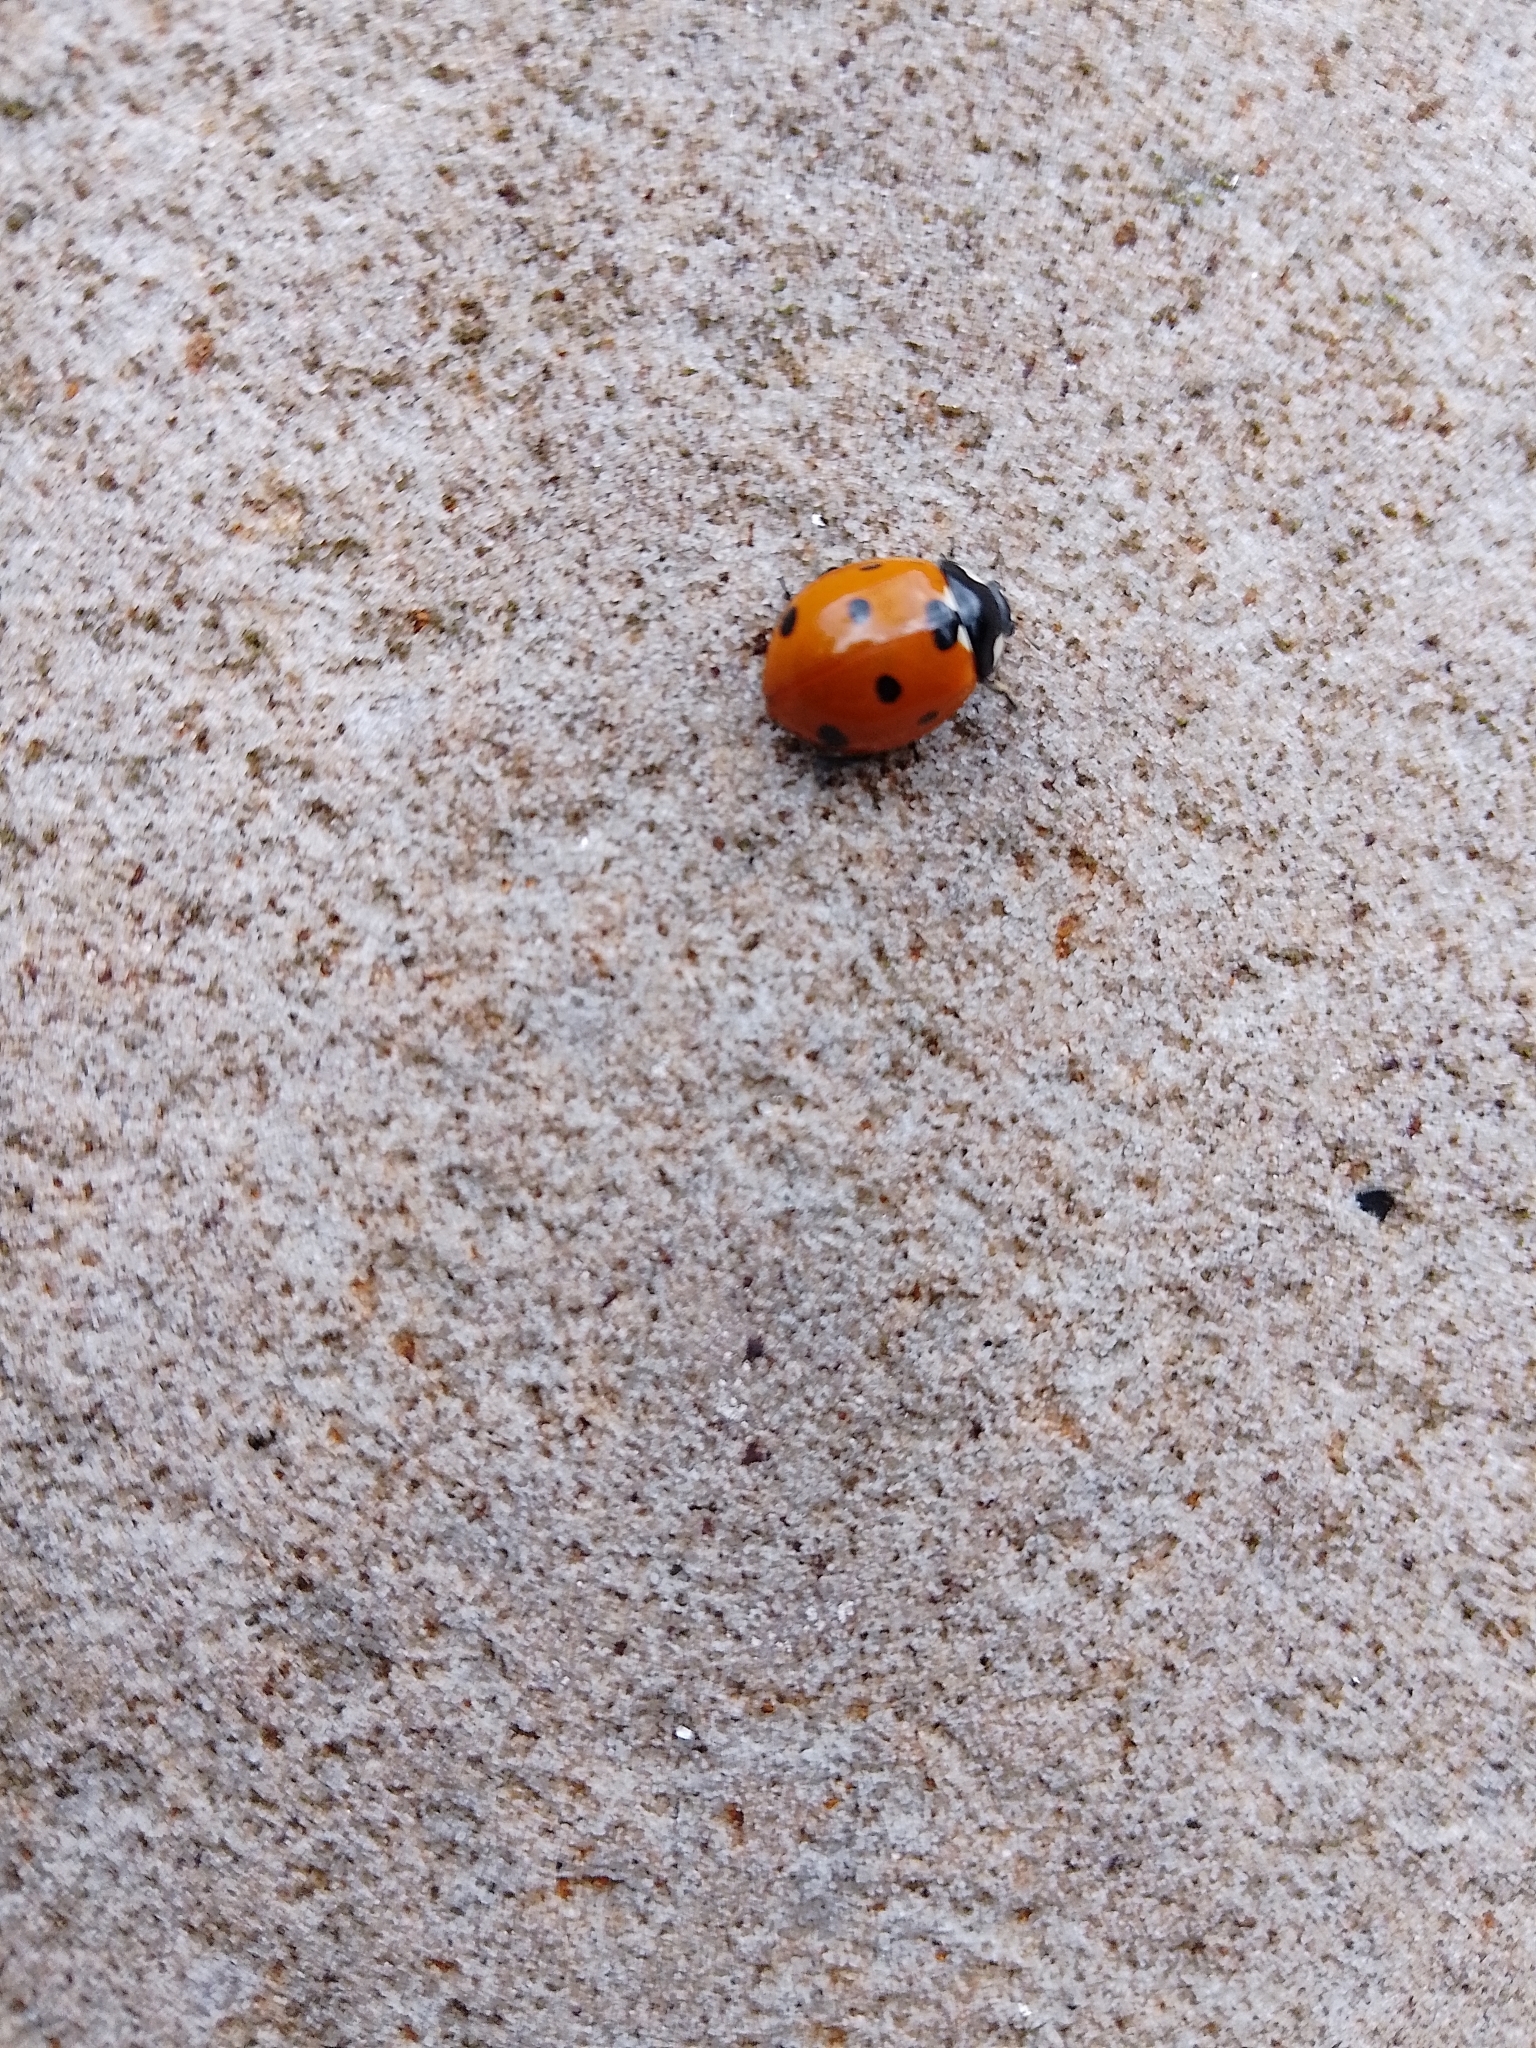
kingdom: Animalia
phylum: Arthropoda
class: Insecta
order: Coleoptera
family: Coccinellidae
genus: Coccinella
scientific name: Coccinella septempunctata
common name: Sevenspotted lady beetle
